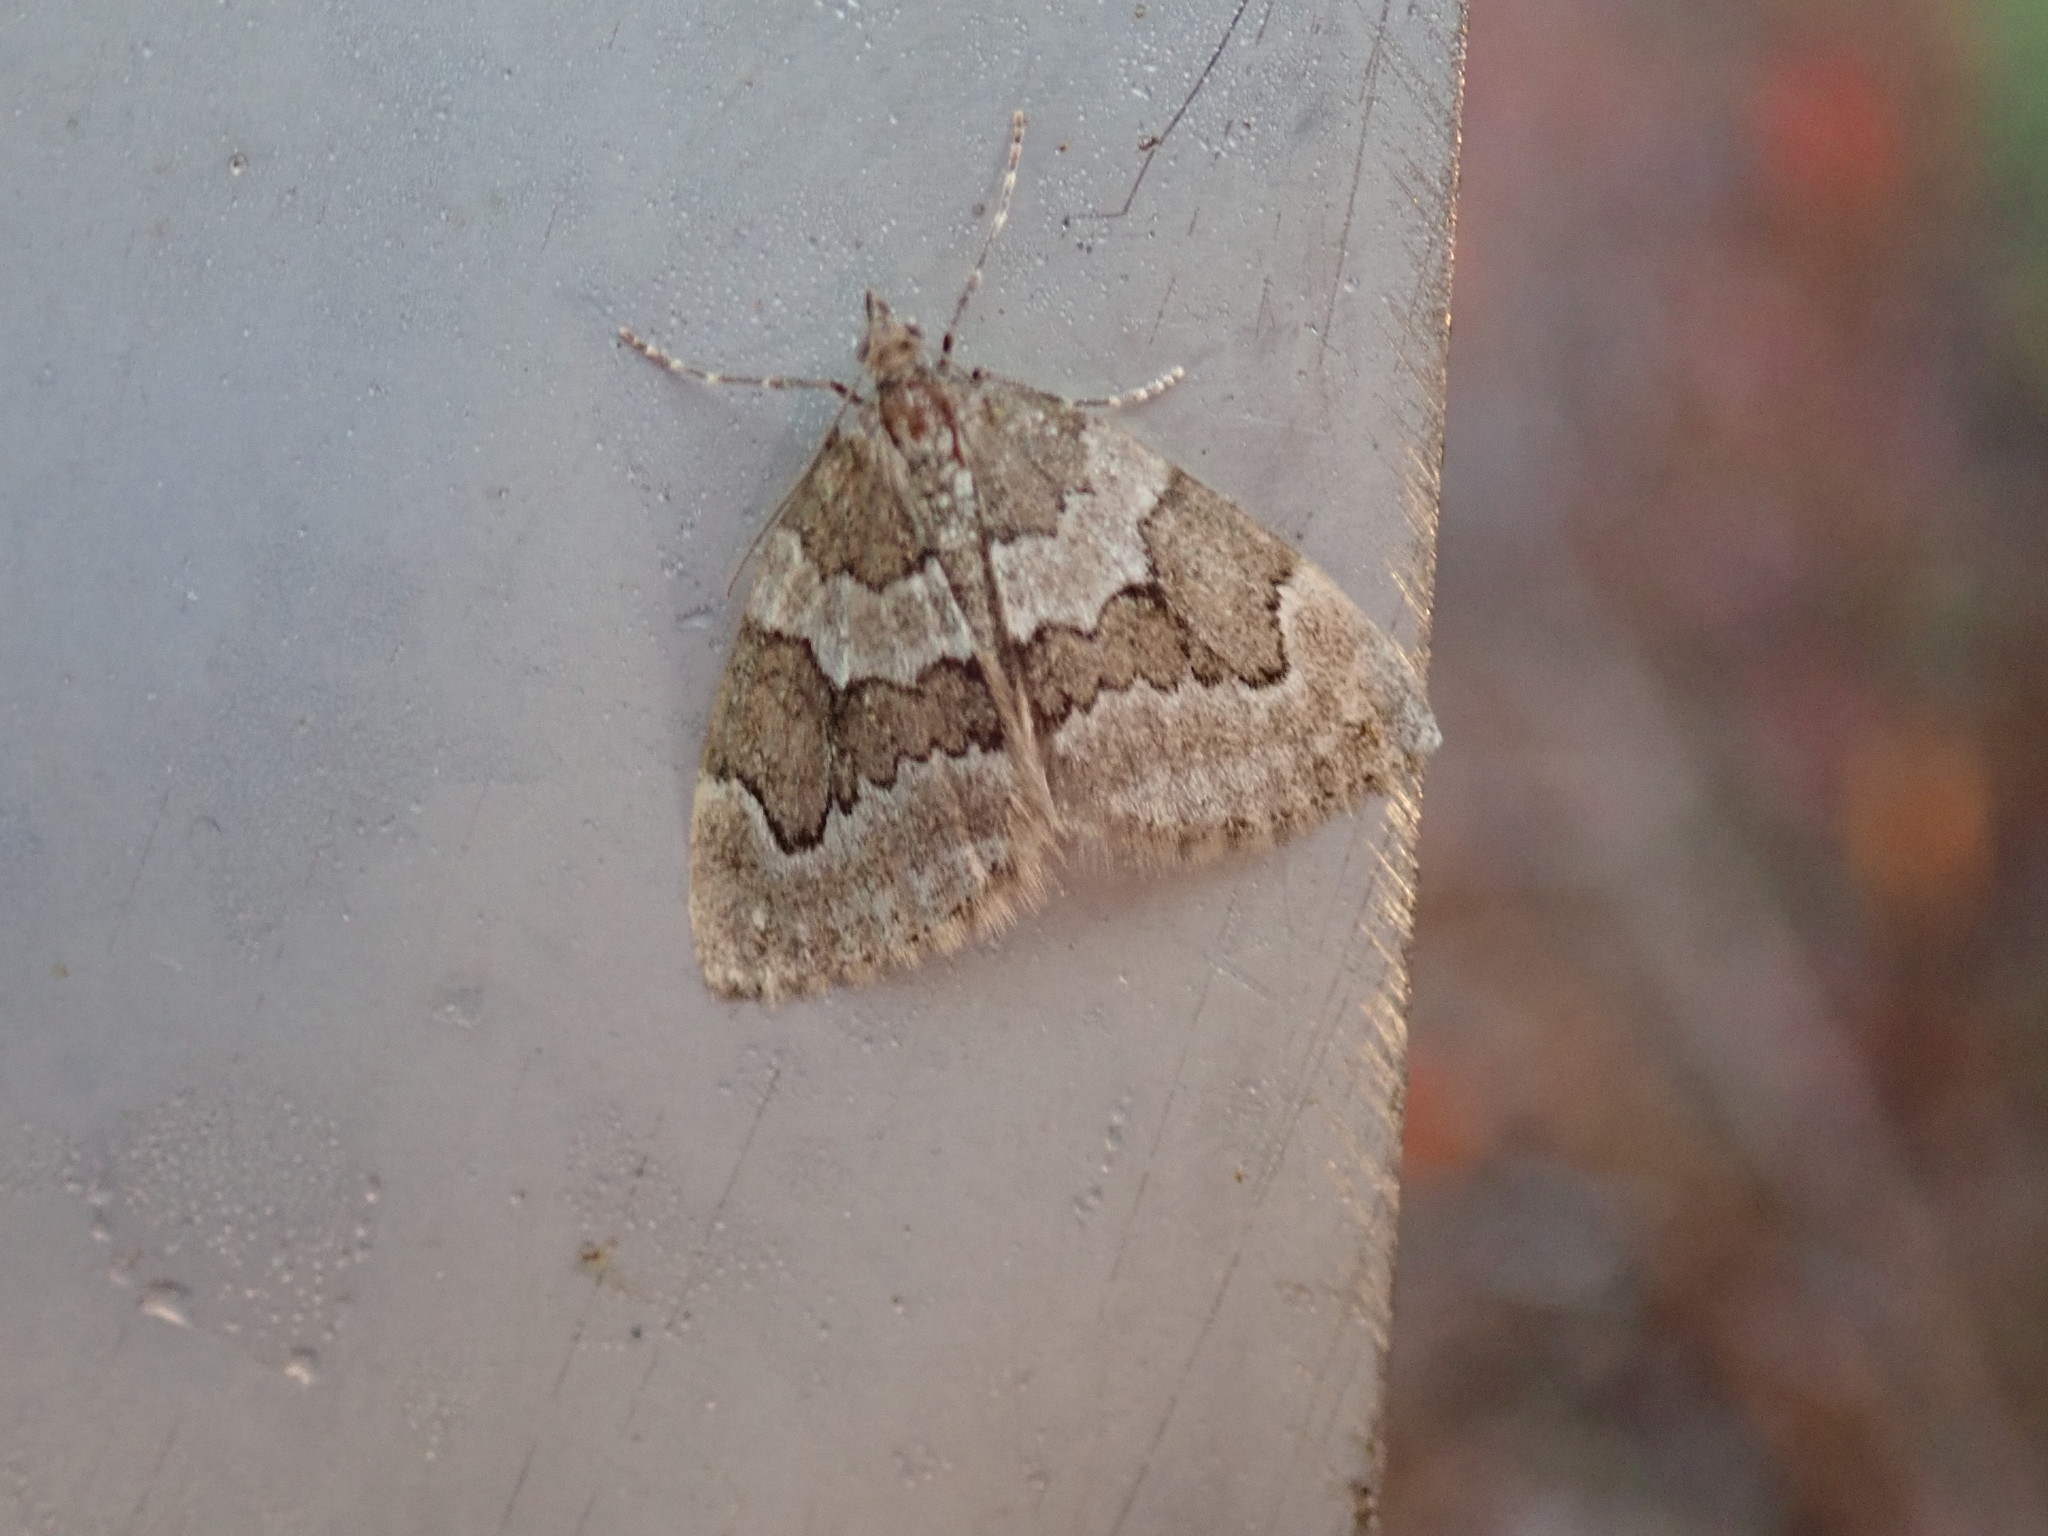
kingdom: Animalia
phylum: Arthropoda
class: Insecta
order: Lepidoptera
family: Geometridae
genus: Thera
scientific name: Thera juniperata
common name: Juniper carpet
